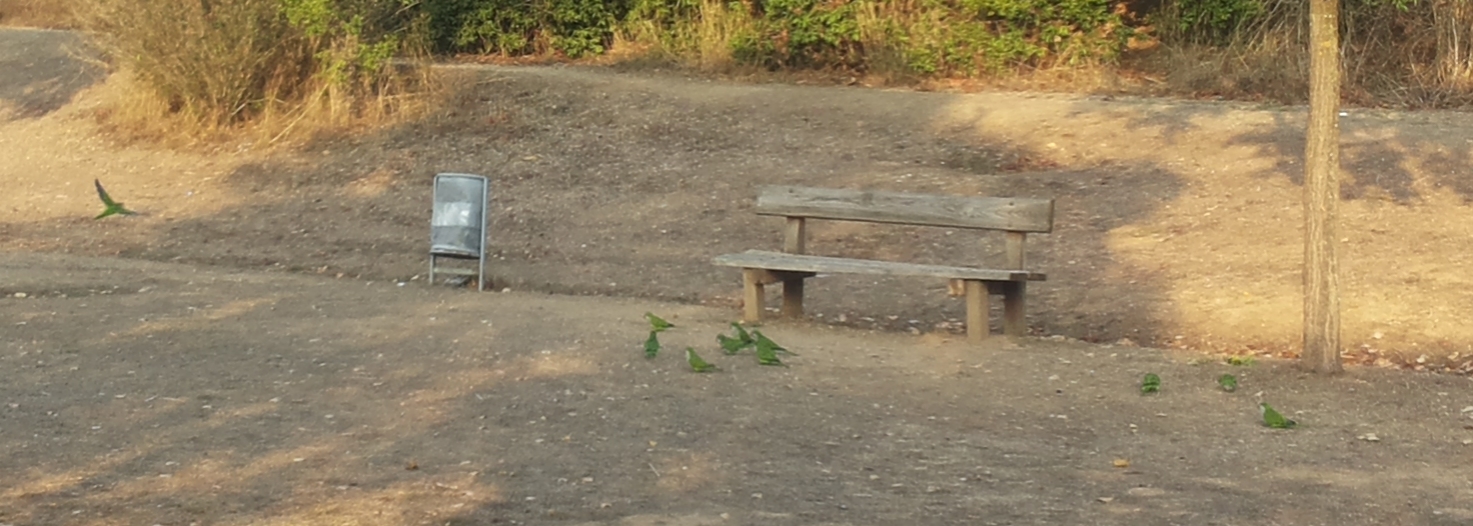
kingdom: Animalia
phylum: Chordata
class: Aves
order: Psittaciformes
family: Psittacidae
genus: Myiopsitta
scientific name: Myiopsitta monachus
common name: Monk parakeet
